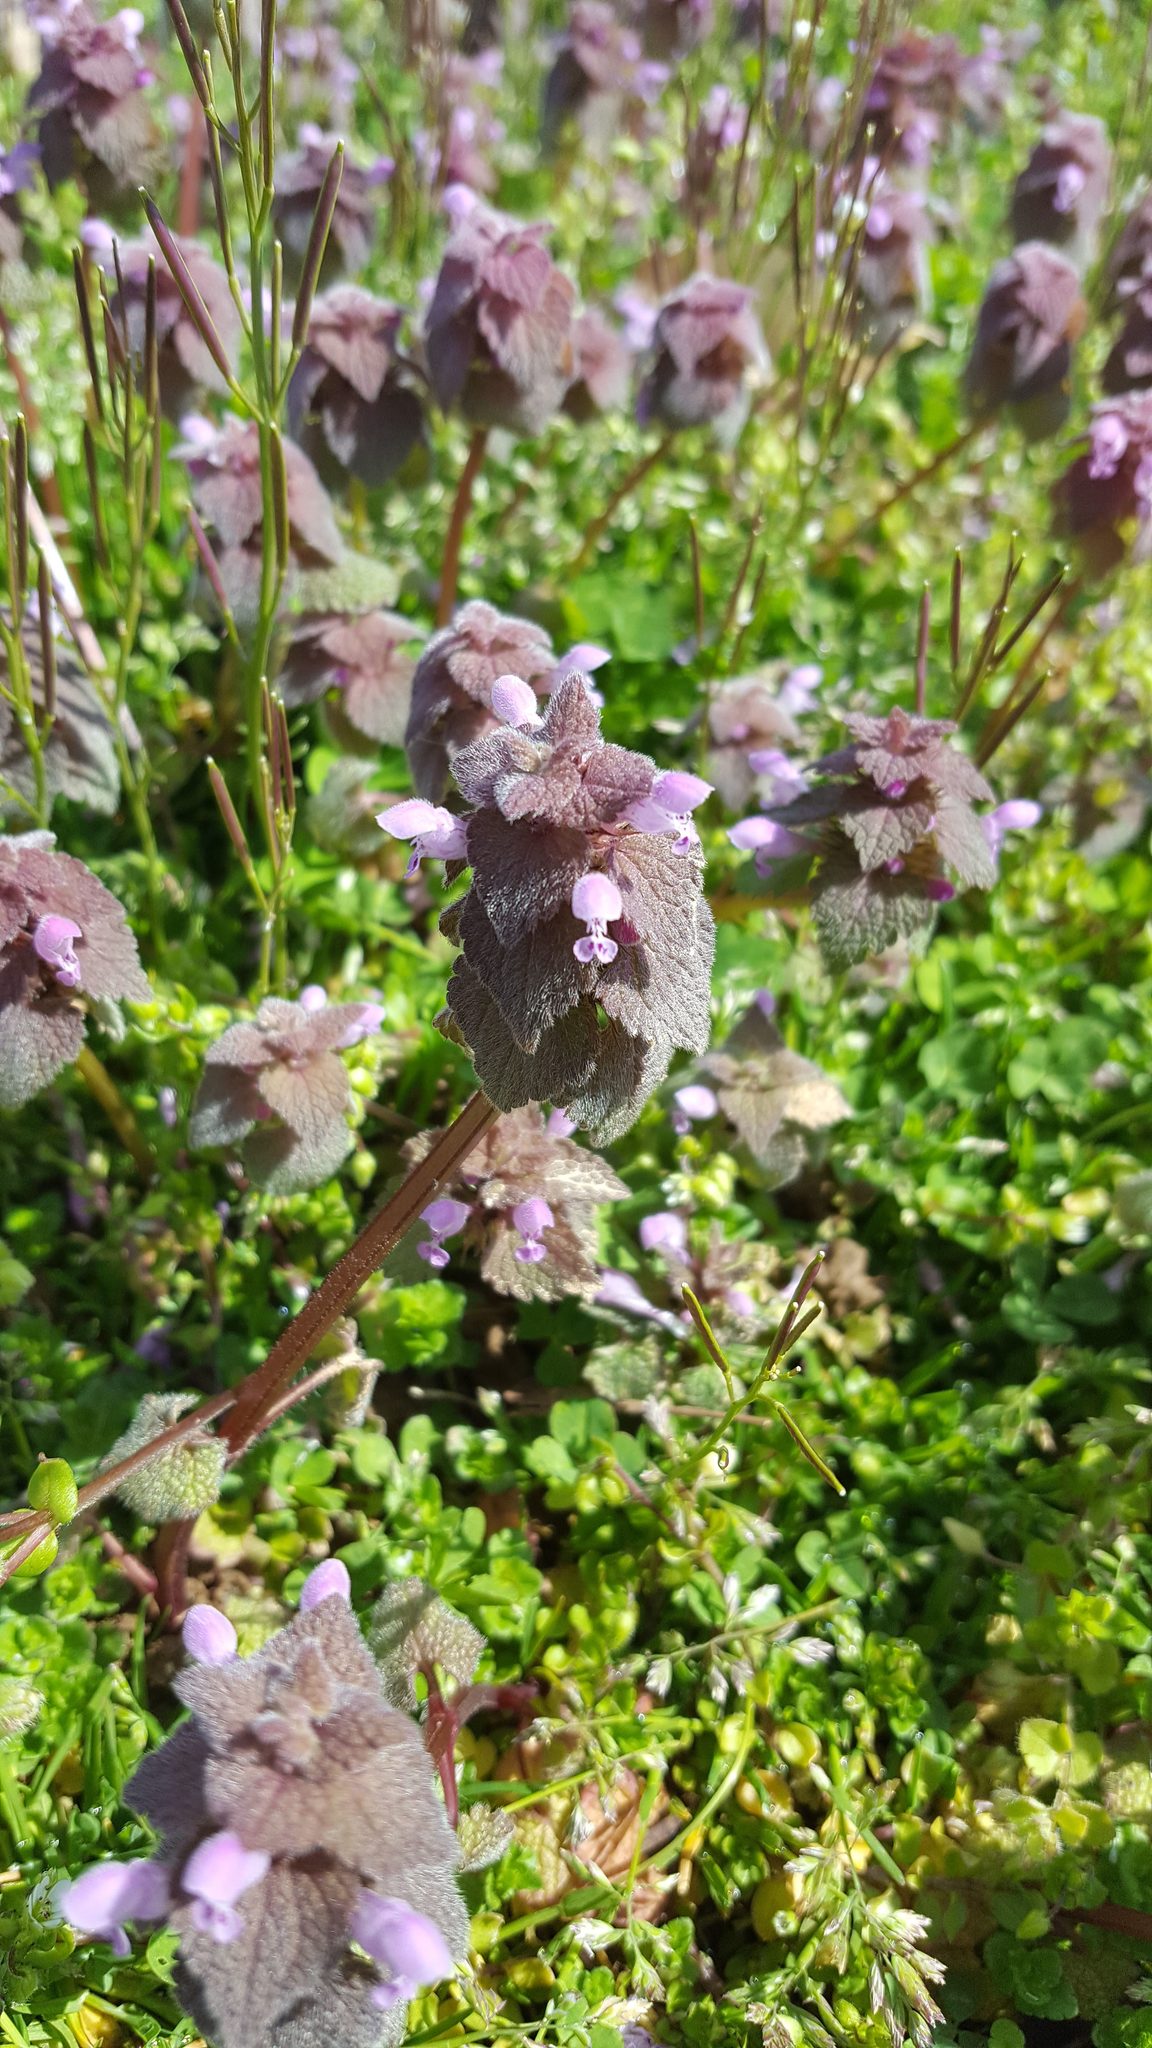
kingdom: Plantae
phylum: Tracheophyta
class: Magnoliopsida
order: Lamiales
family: Lamiaceae
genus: Lamium
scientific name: Lamium purpureum
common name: Red dead-nettle
